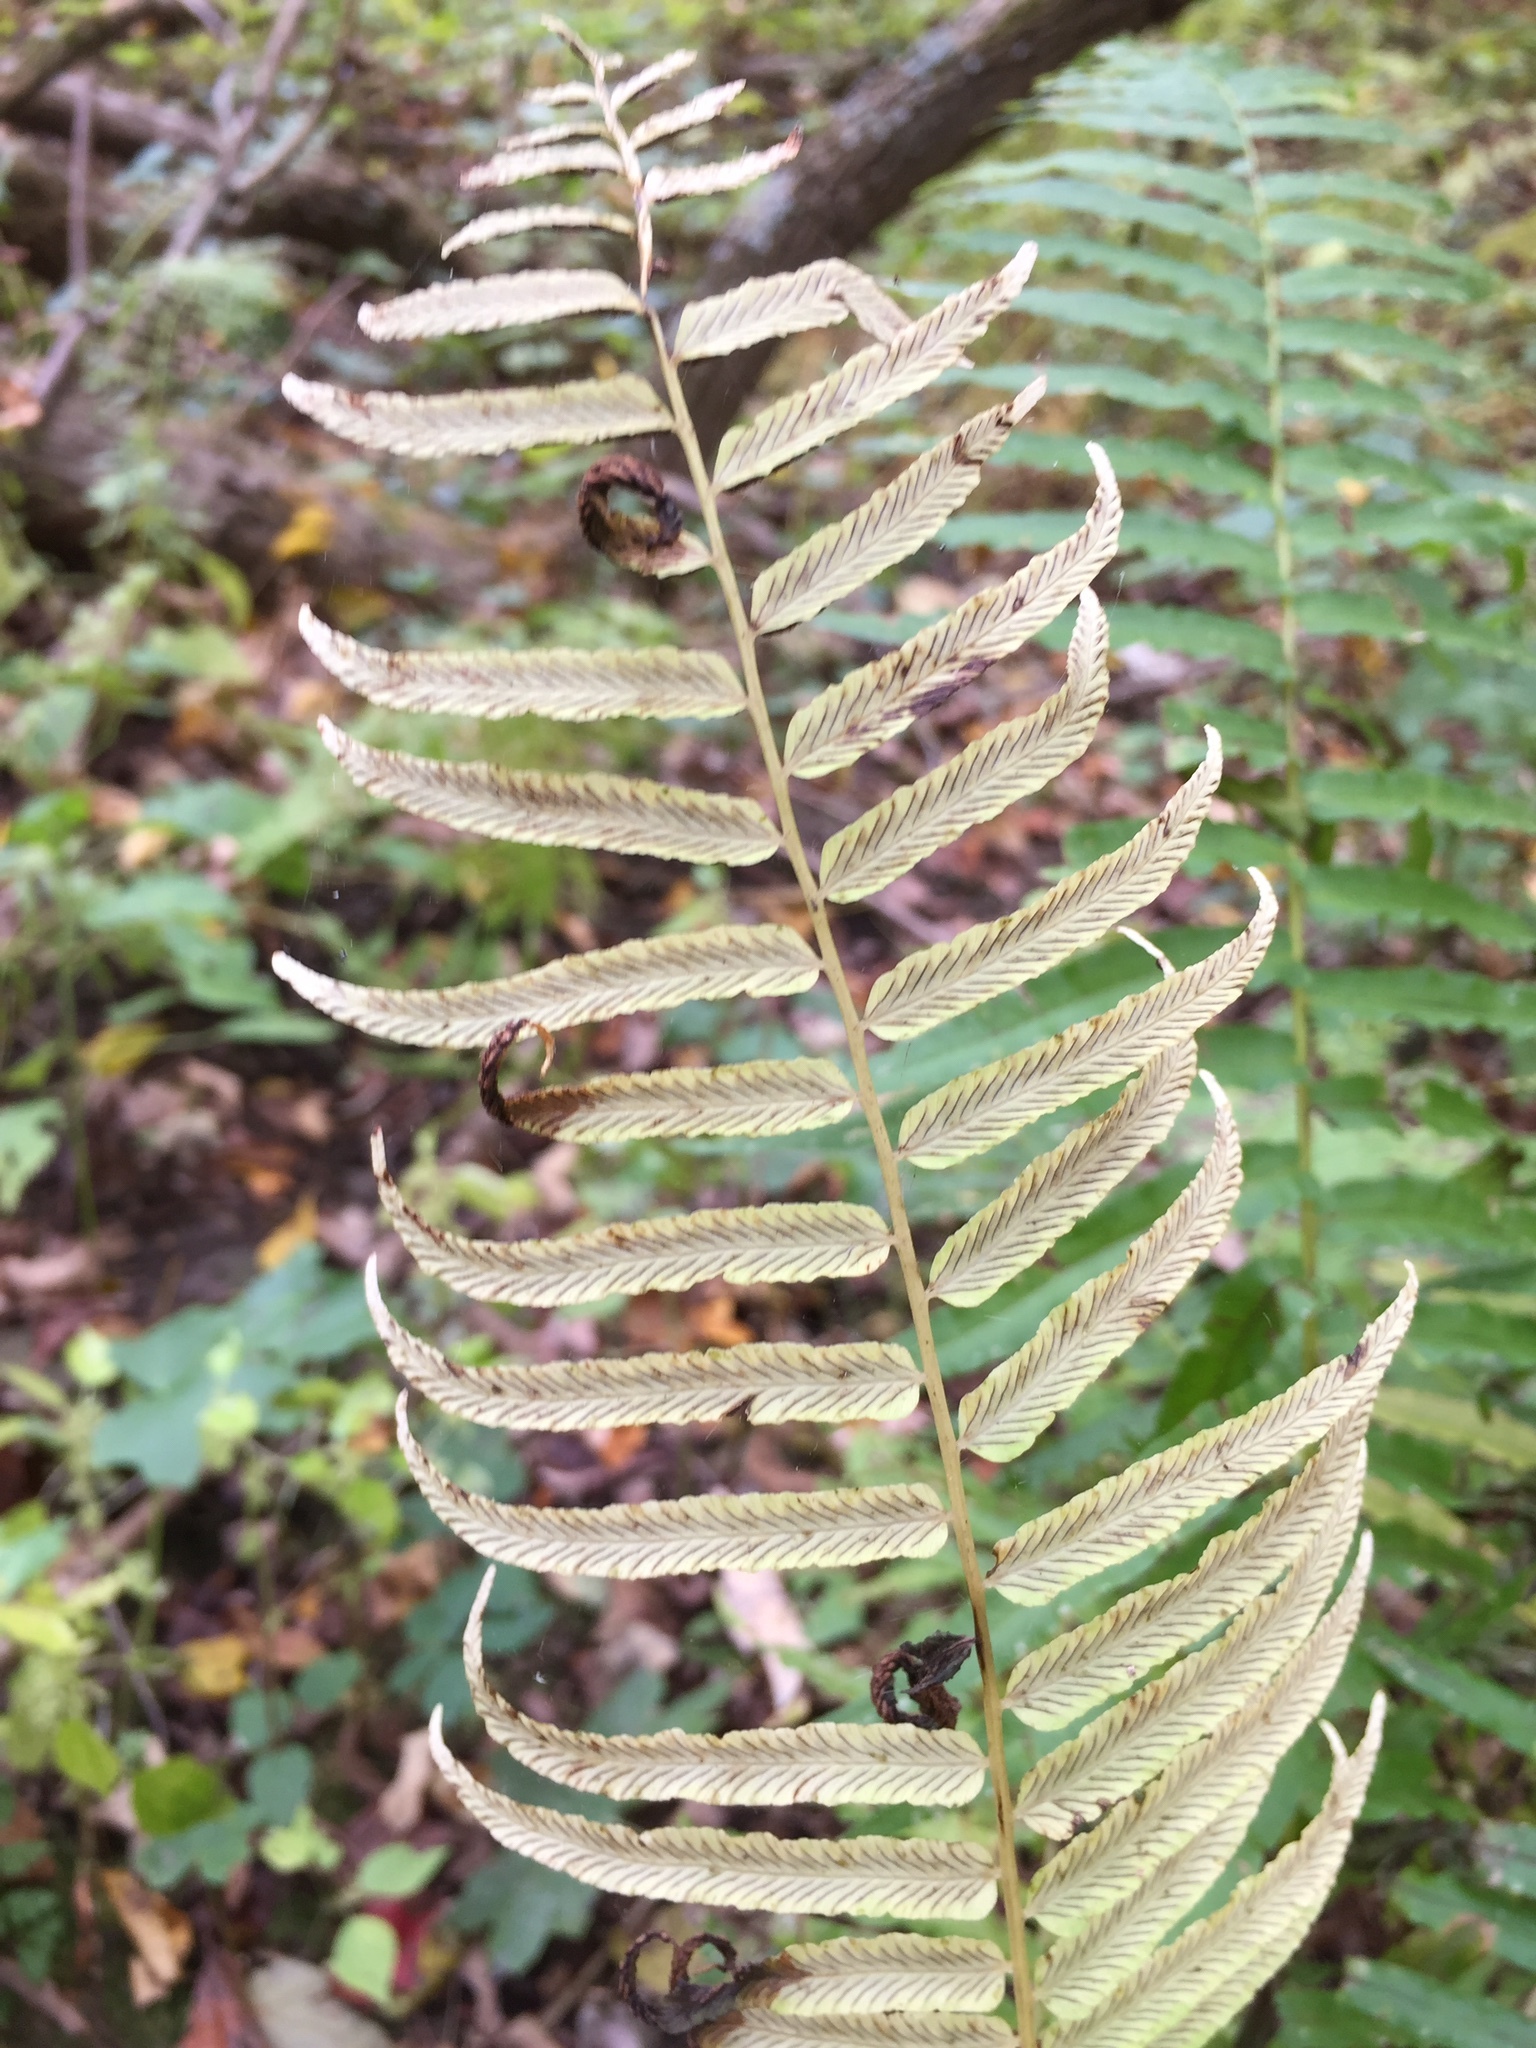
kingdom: Plantae
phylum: Tracheophyta
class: Polypodiopsida
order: Polypodiales
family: Diplaziopsidaceae
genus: Homalosorus
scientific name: Homalosorus pycnocarpos
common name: Glade fern
